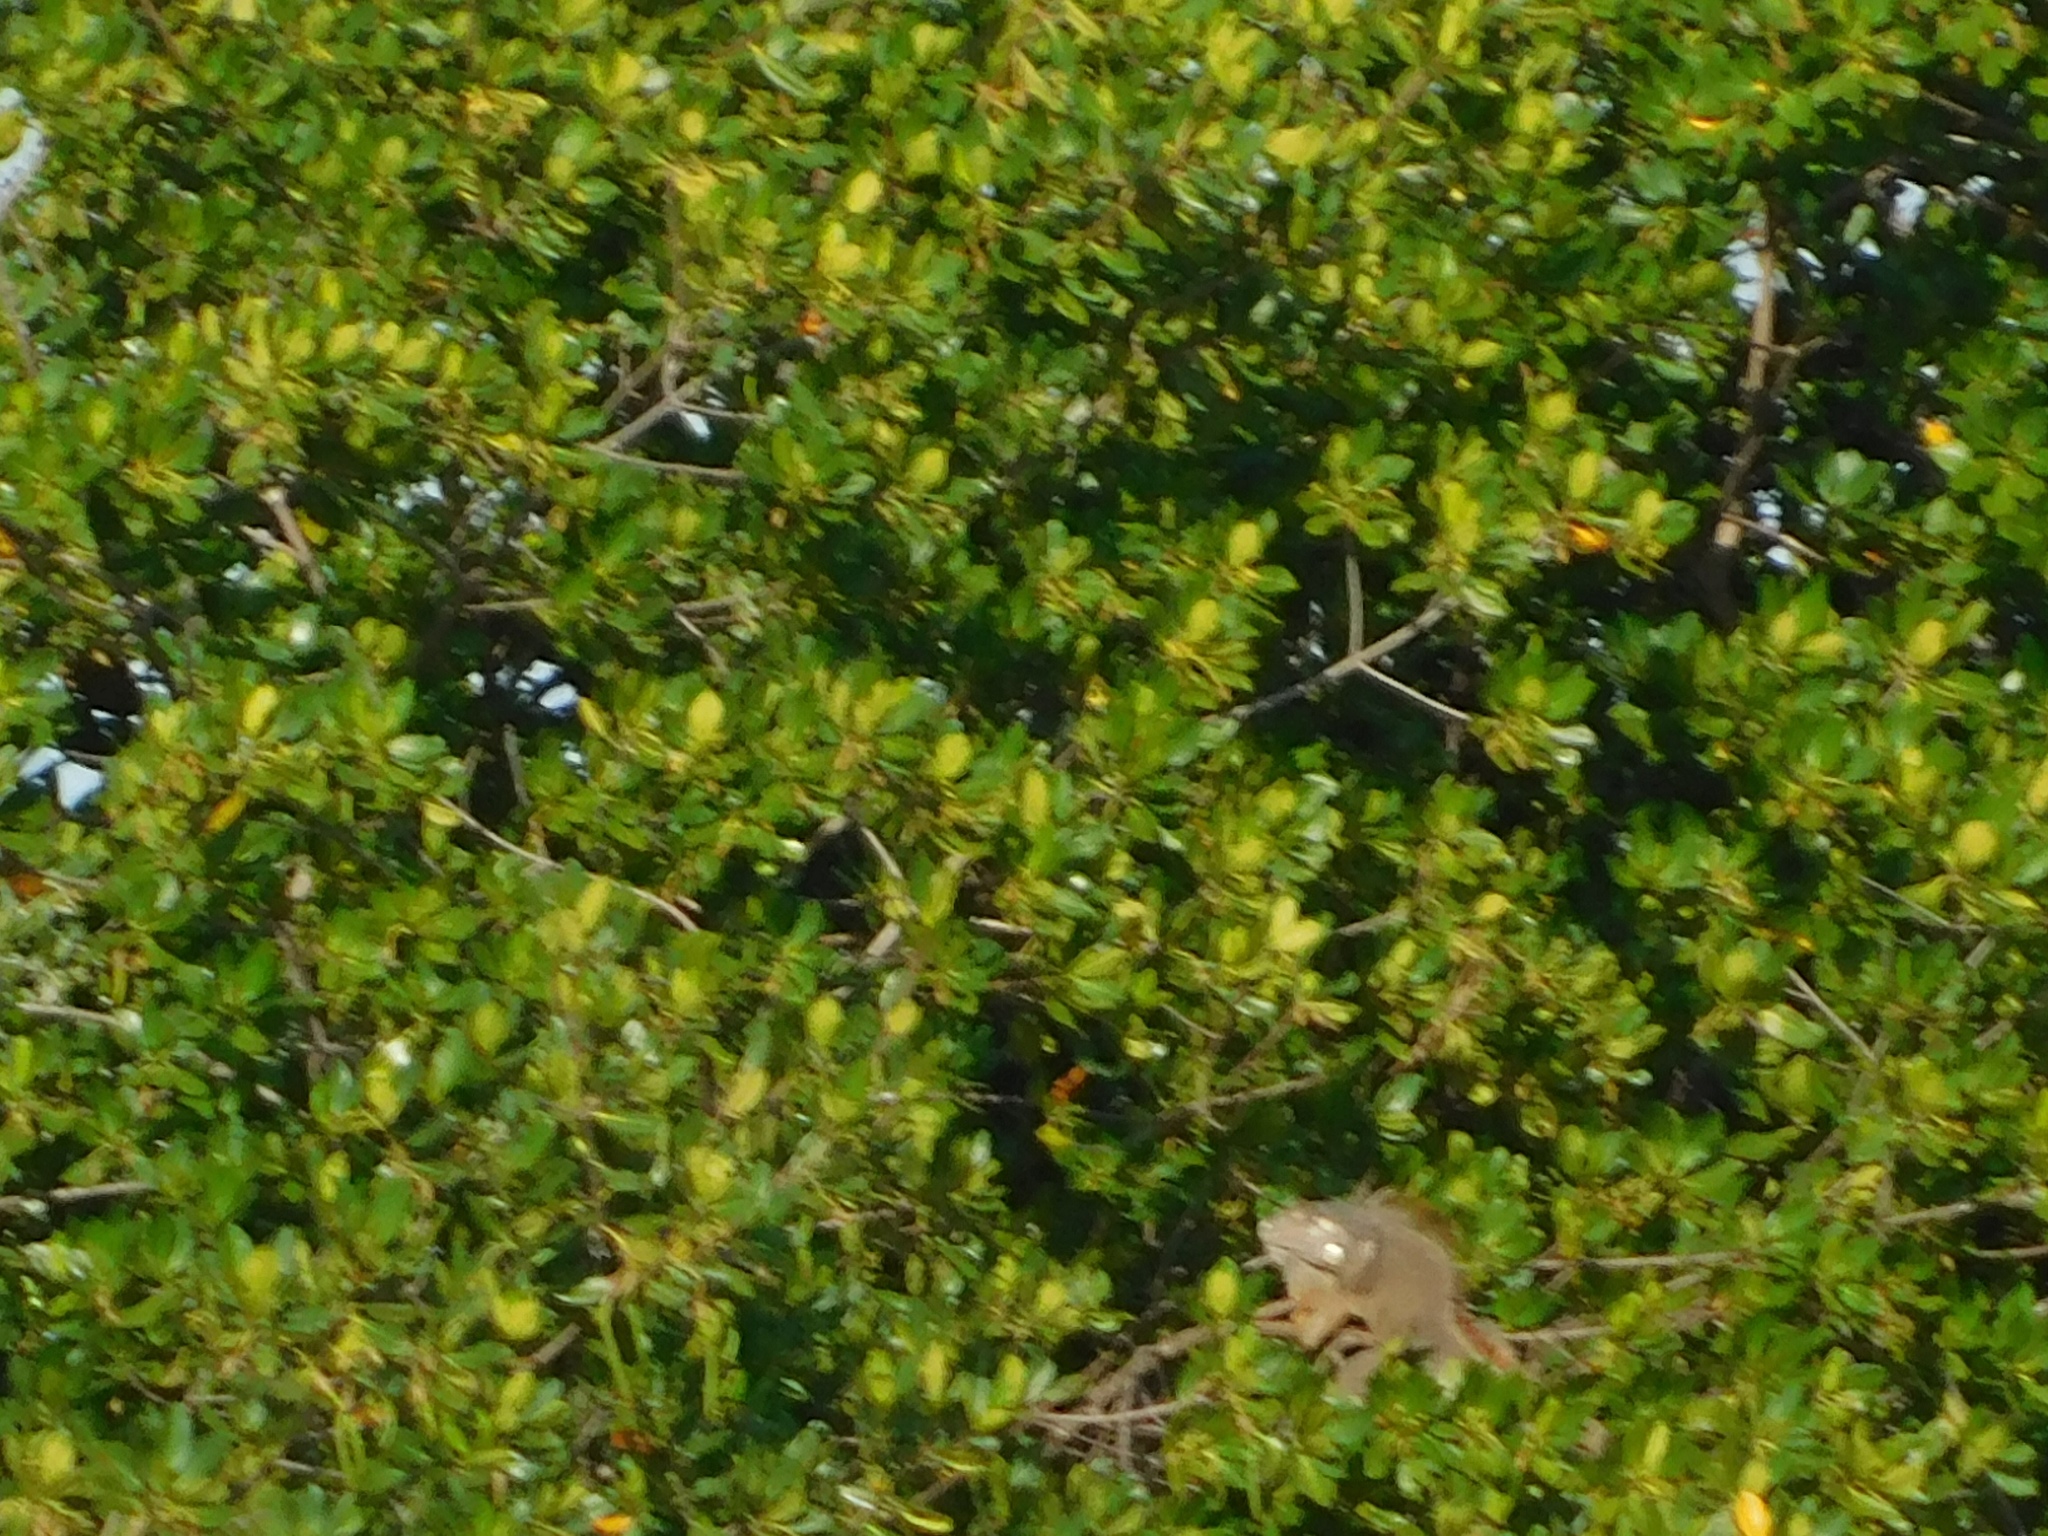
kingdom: Animalia
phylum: Chordata
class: Squamata
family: Iguanidae
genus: Iguana
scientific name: Iguana iguana
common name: Green iguana
